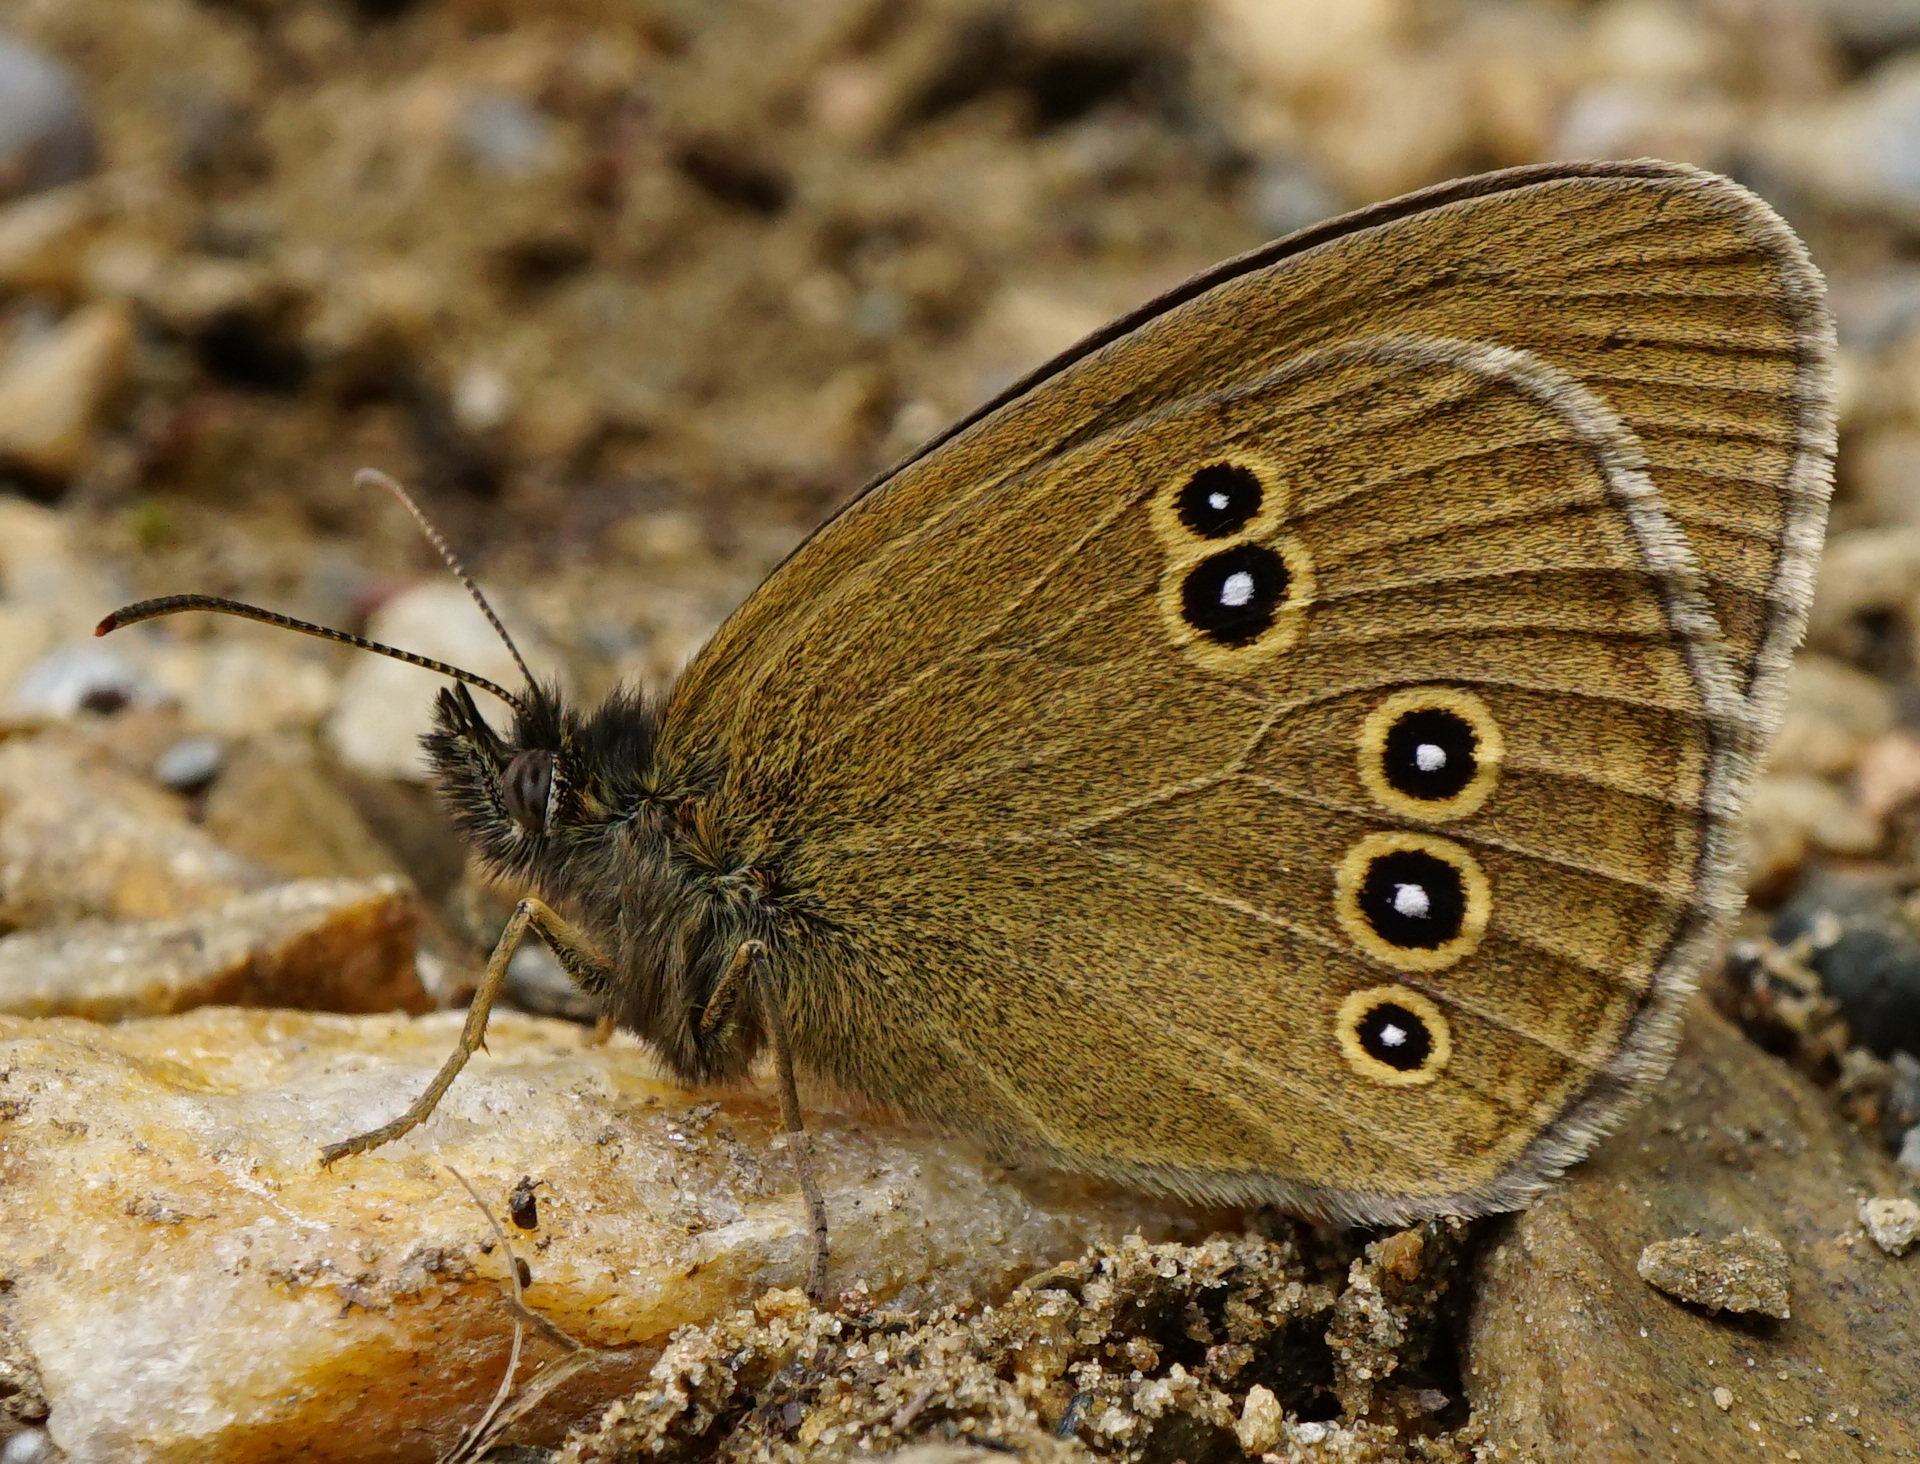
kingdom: Animalia
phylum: Arthropoda
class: Insecta
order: Lepidoptera
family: Nymphalidae
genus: Aphantopus
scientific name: Aphantopus hyperantus
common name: Ringlet
